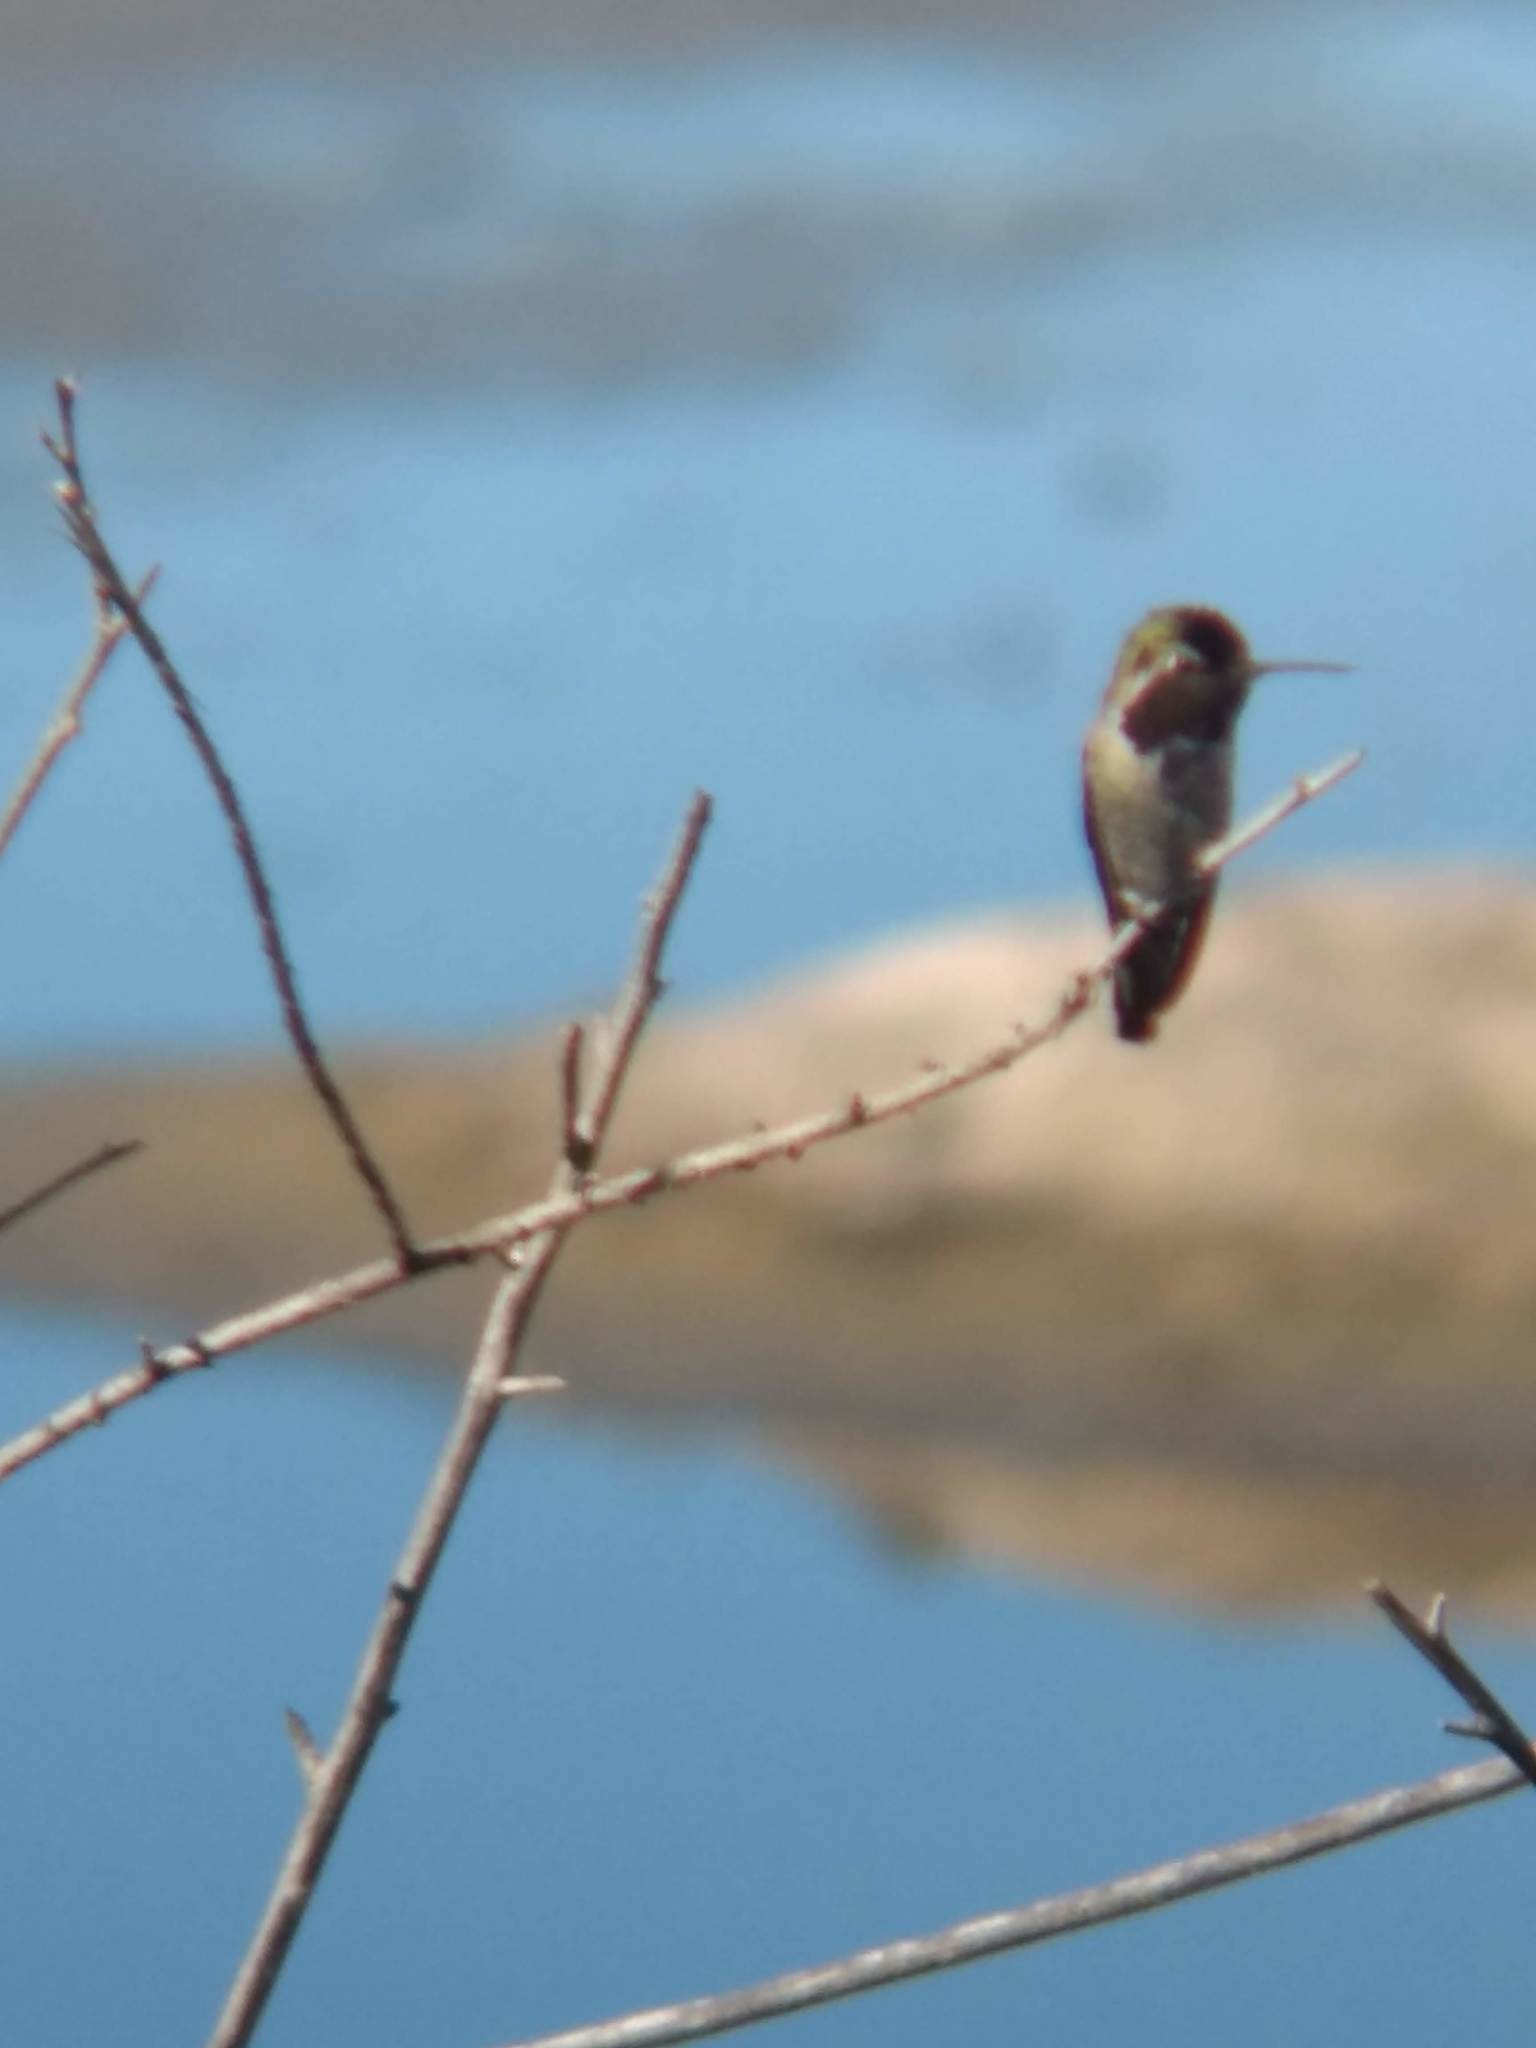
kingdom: Animalia
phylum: Chordata
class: Aves
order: Apodiformes
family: Trochilidae
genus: Calypte
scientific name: Calypte anna
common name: Anna's hummingbird
